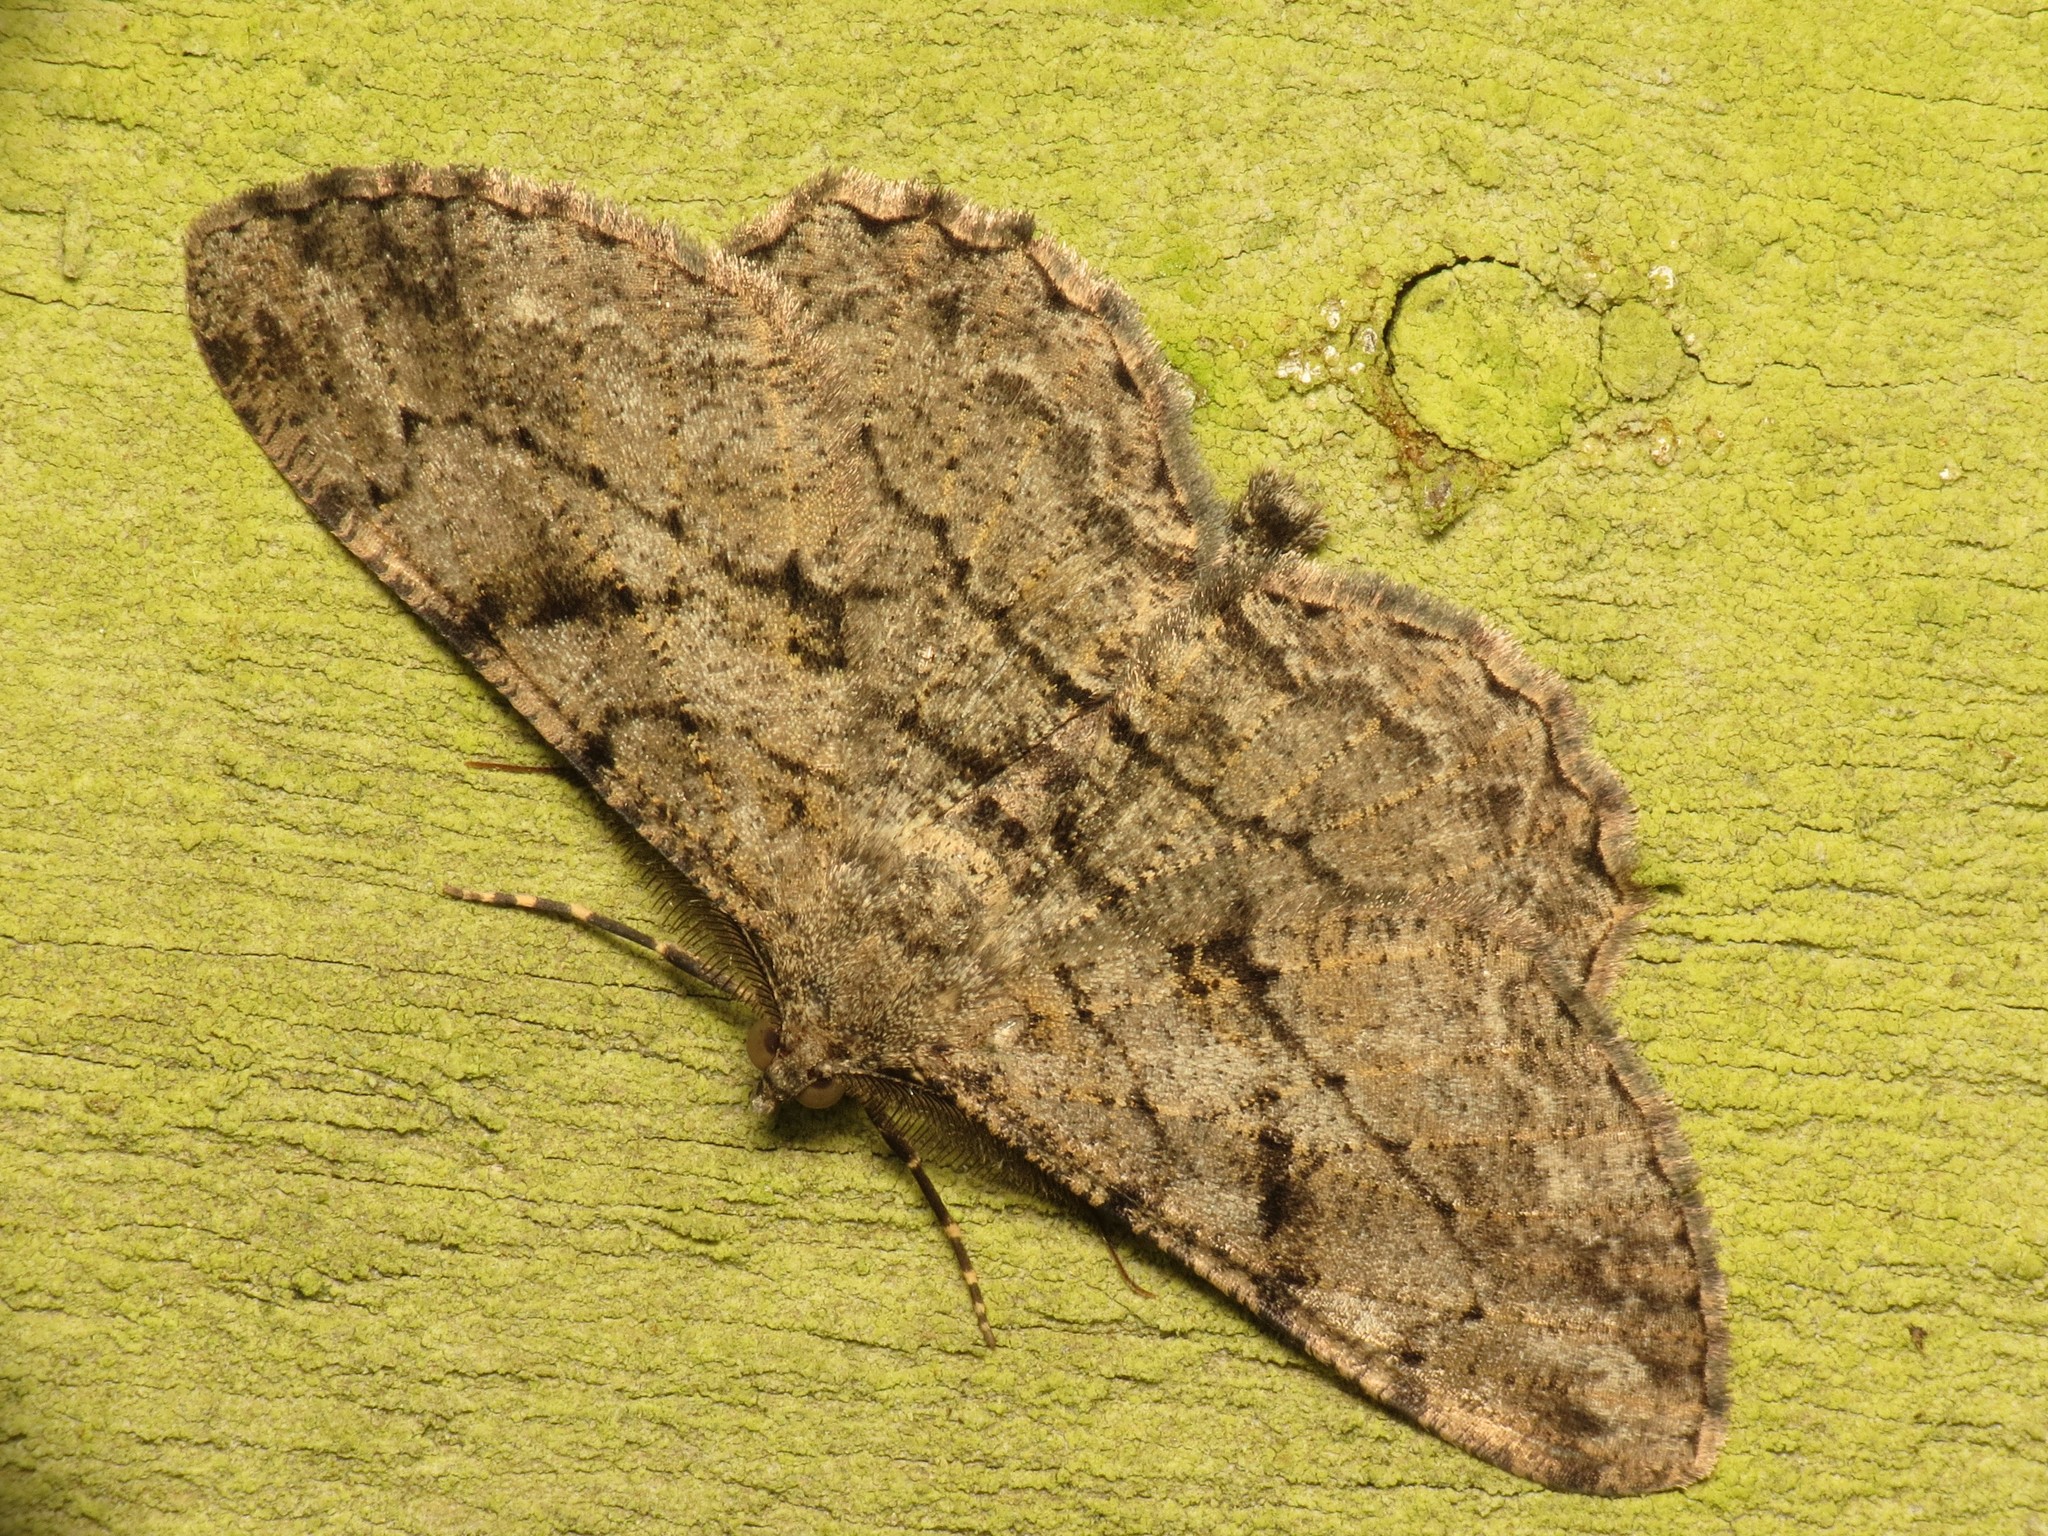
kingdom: Animalia
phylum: Arthropoda
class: Insecta
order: Lepidoptera
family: Geometridae
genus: Peribatodes
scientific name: Peribatodes rhomboidaria
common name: Willow beauty
